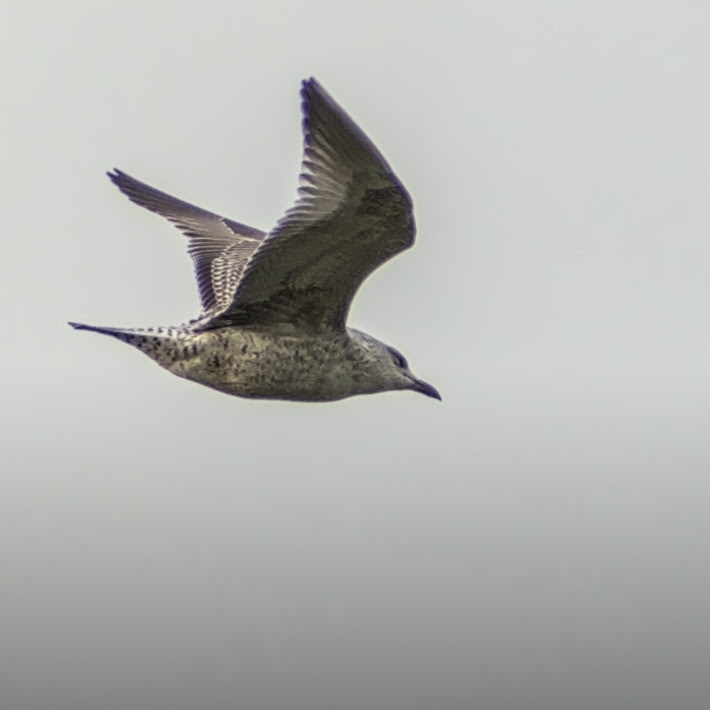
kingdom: Animalia
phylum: Chordata
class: Aves
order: Charadriiformes
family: Laridae
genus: Larus
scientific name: Larus argentatus
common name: Herring gull
